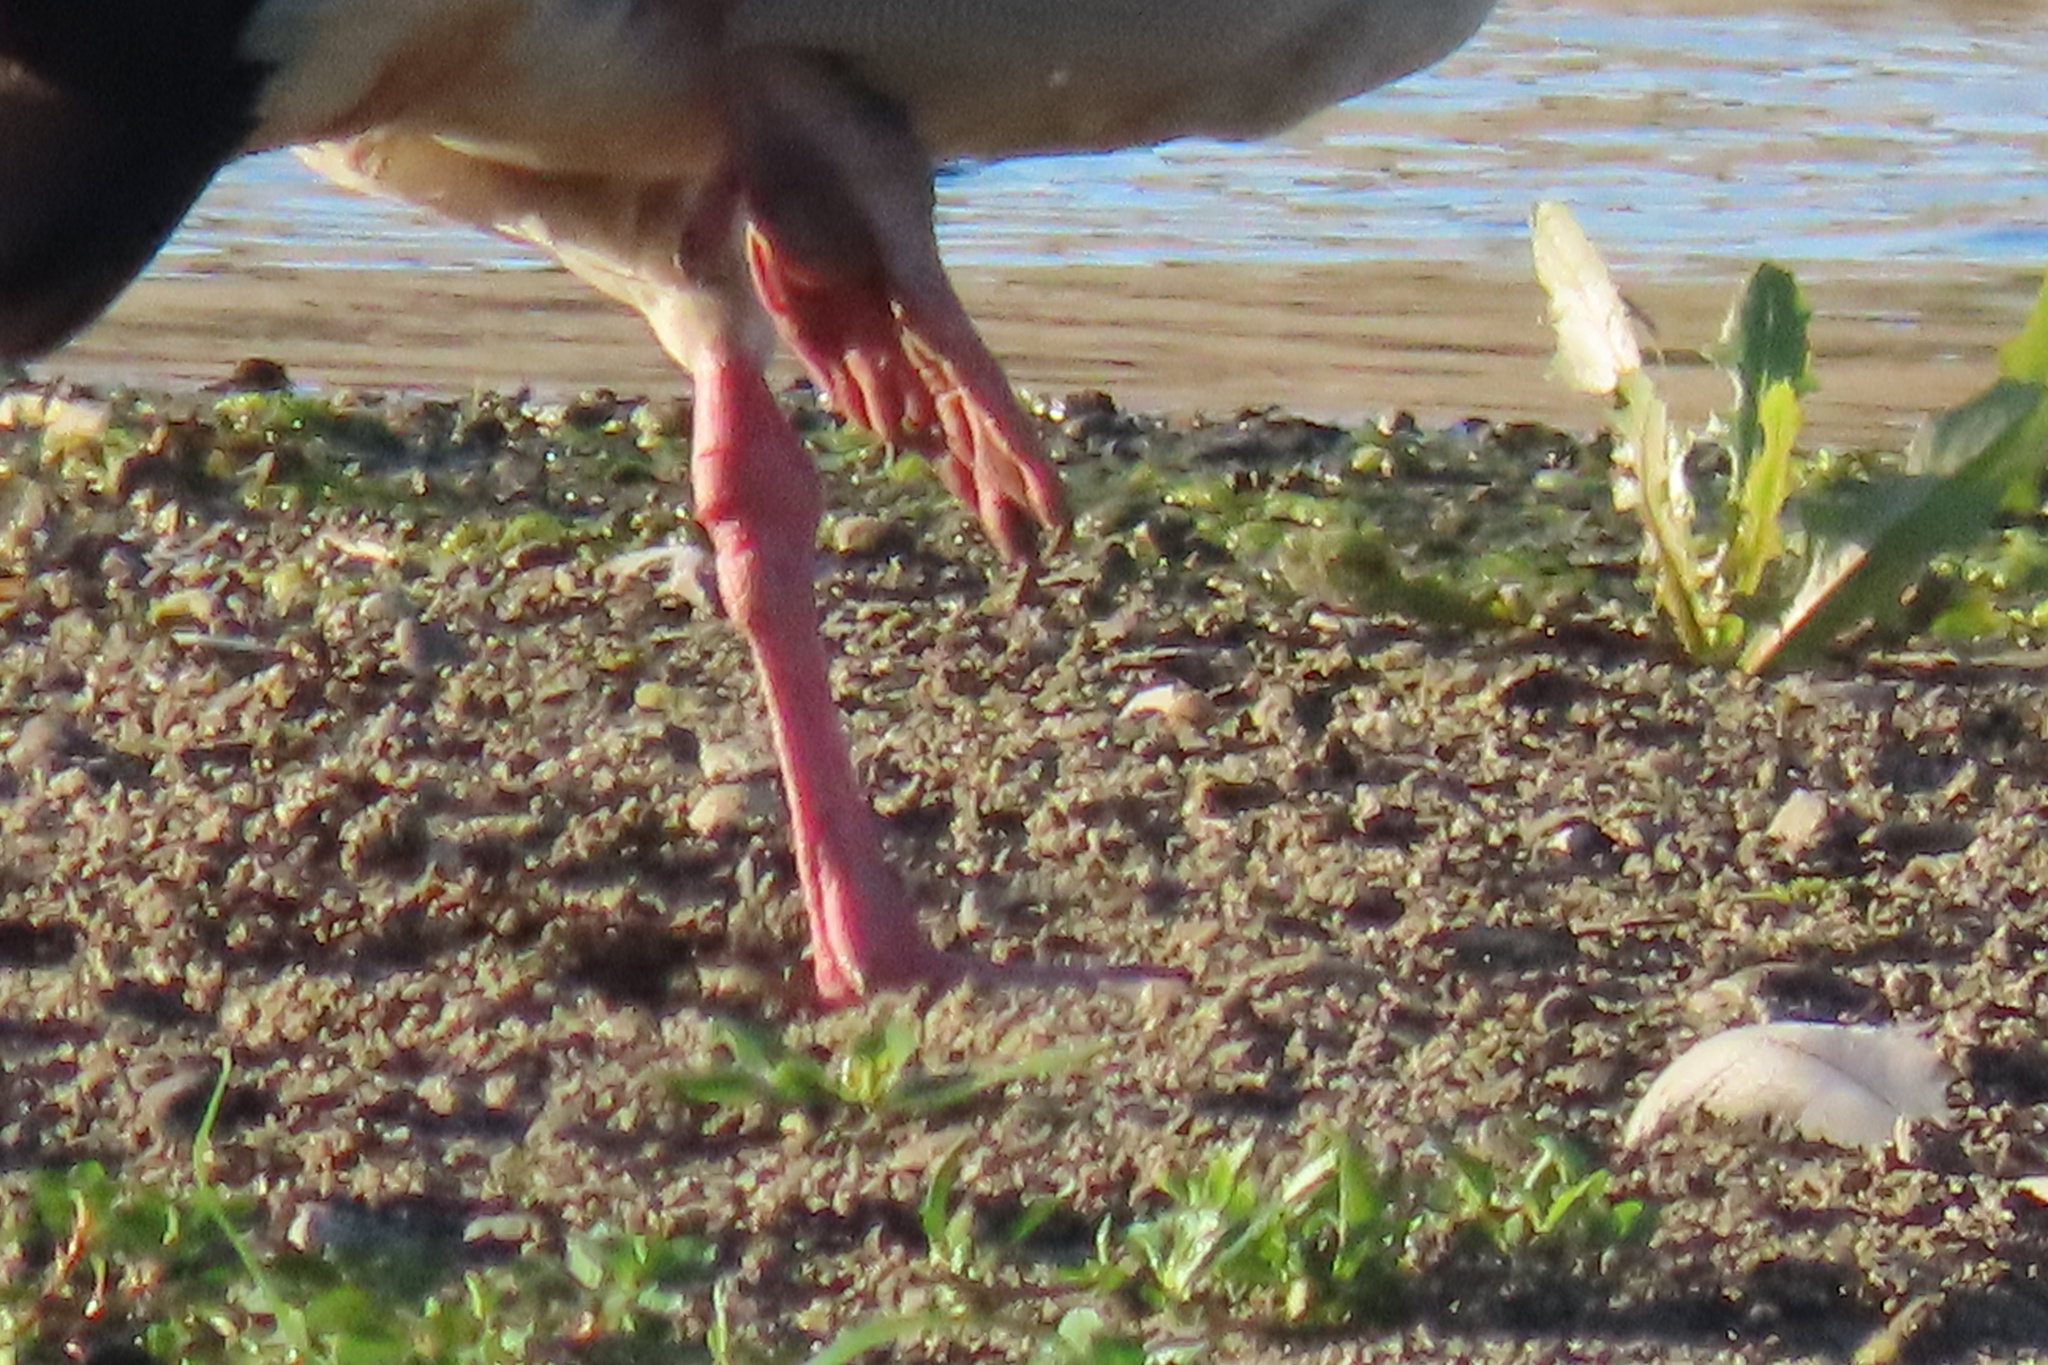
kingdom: Animalia
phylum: Chordata
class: Aves
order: Anseriformes
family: Anatidae
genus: Alopochen
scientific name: Alopochen aegyptiaca
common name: Egyptian goose
